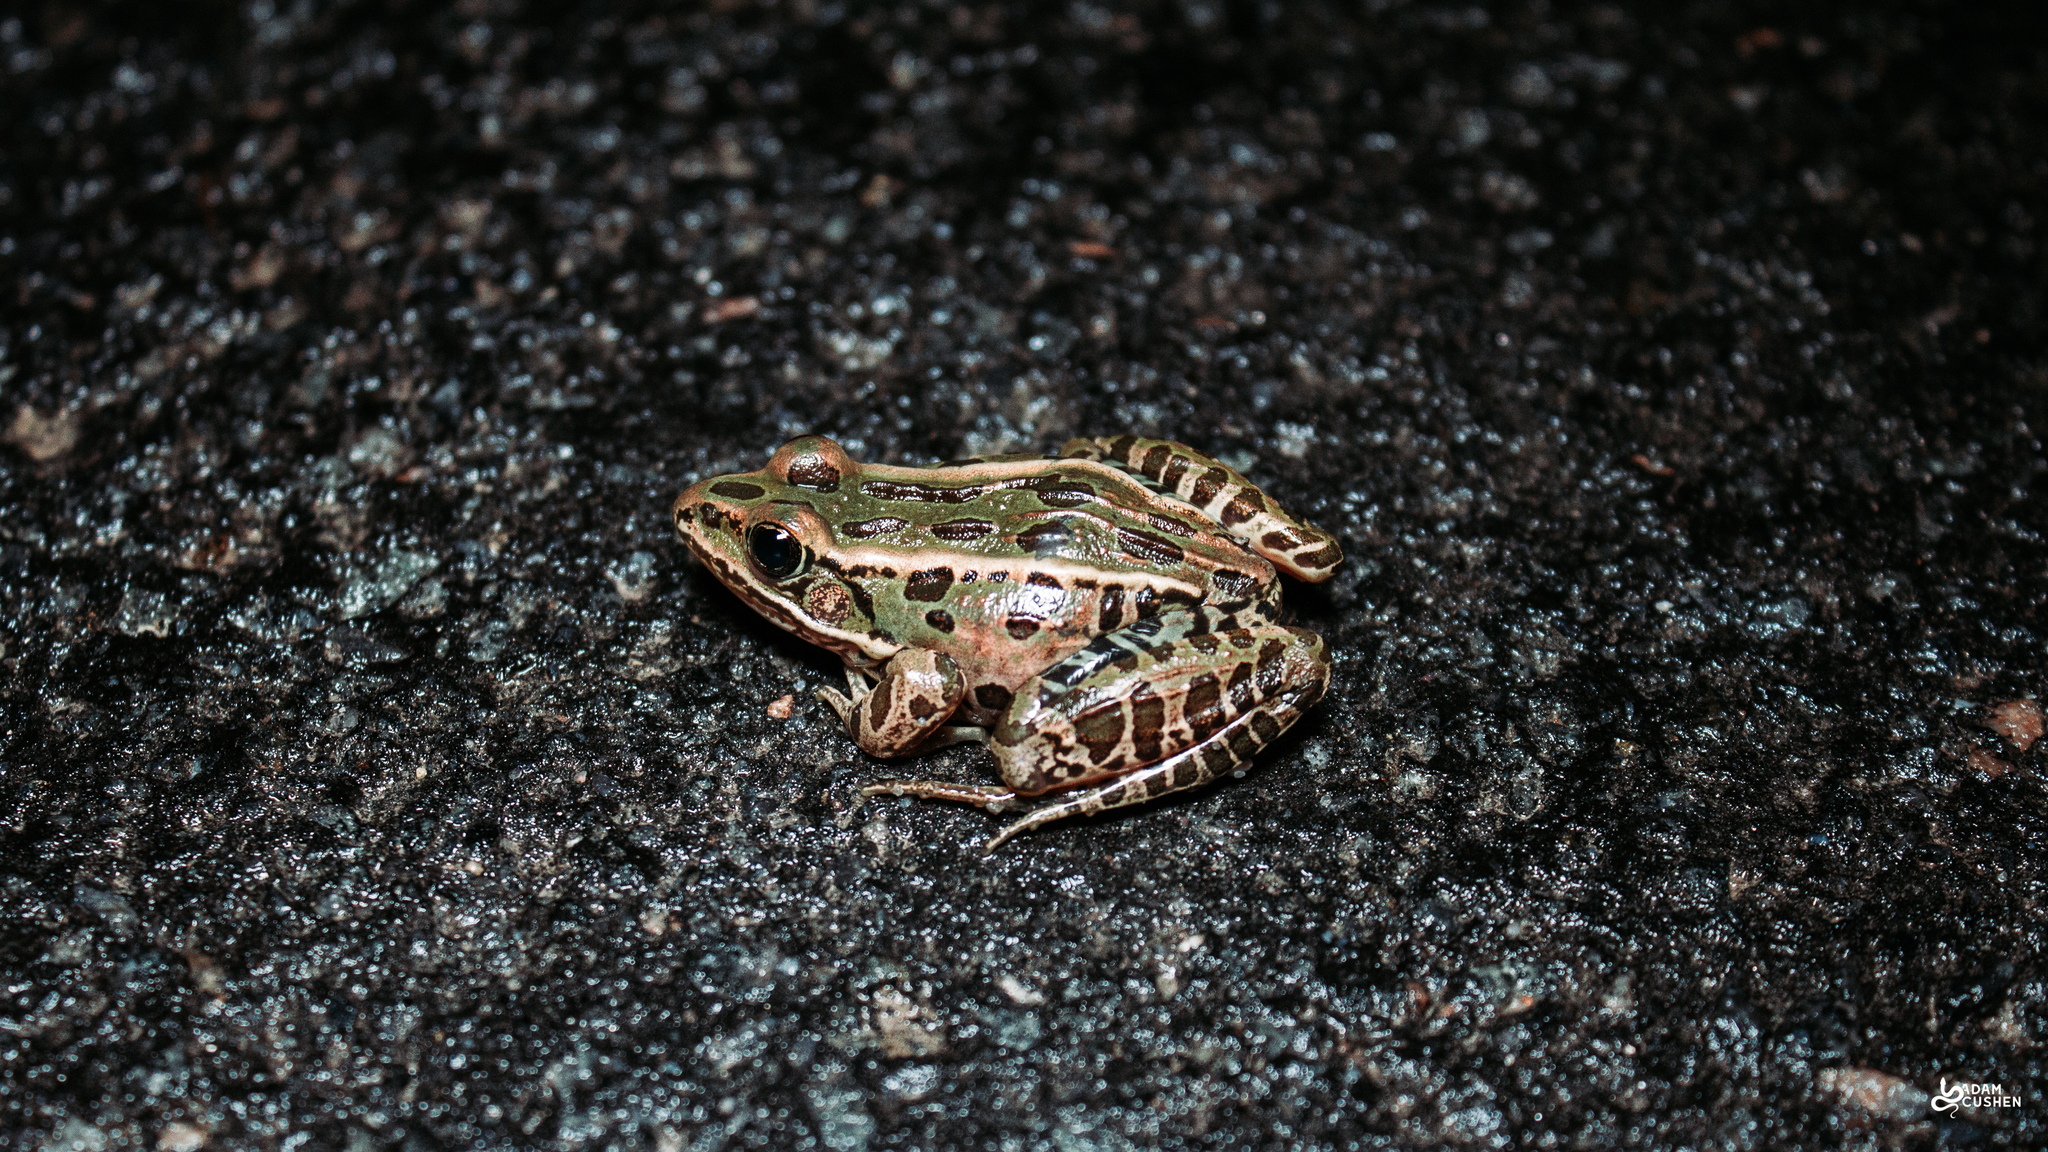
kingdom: Animalia
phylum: Chordata
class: Amphibia
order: Anura
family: Ranidae
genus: Lithobates
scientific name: Lithobates pipiens
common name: Northern leopard frog
